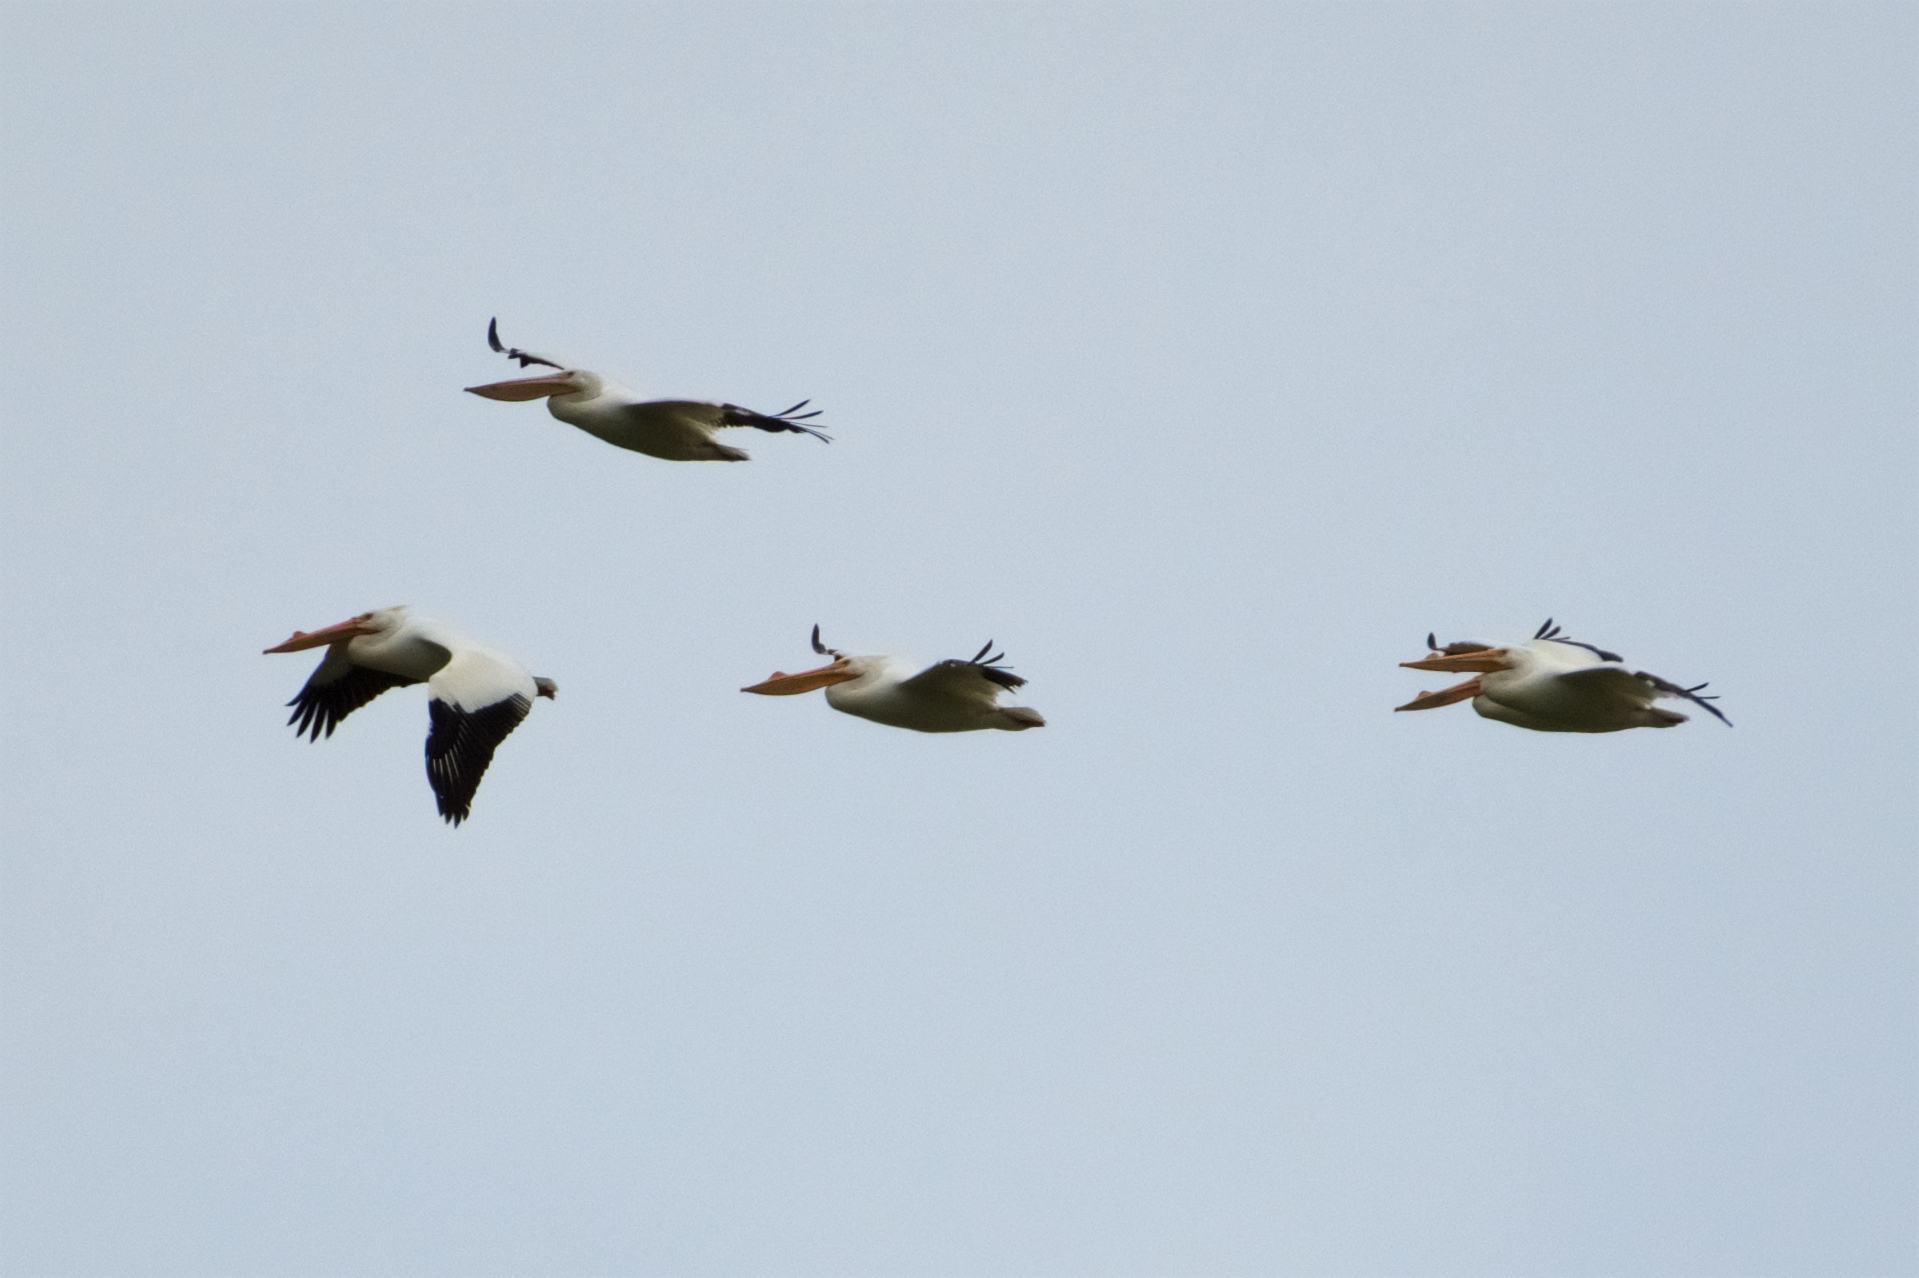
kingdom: Animalia
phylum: Chordata
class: Aves
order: Pelecaniformes
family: Pelecanidae
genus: Pelecanus
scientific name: Pelecanus erythrorhynchos
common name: American white pelican
